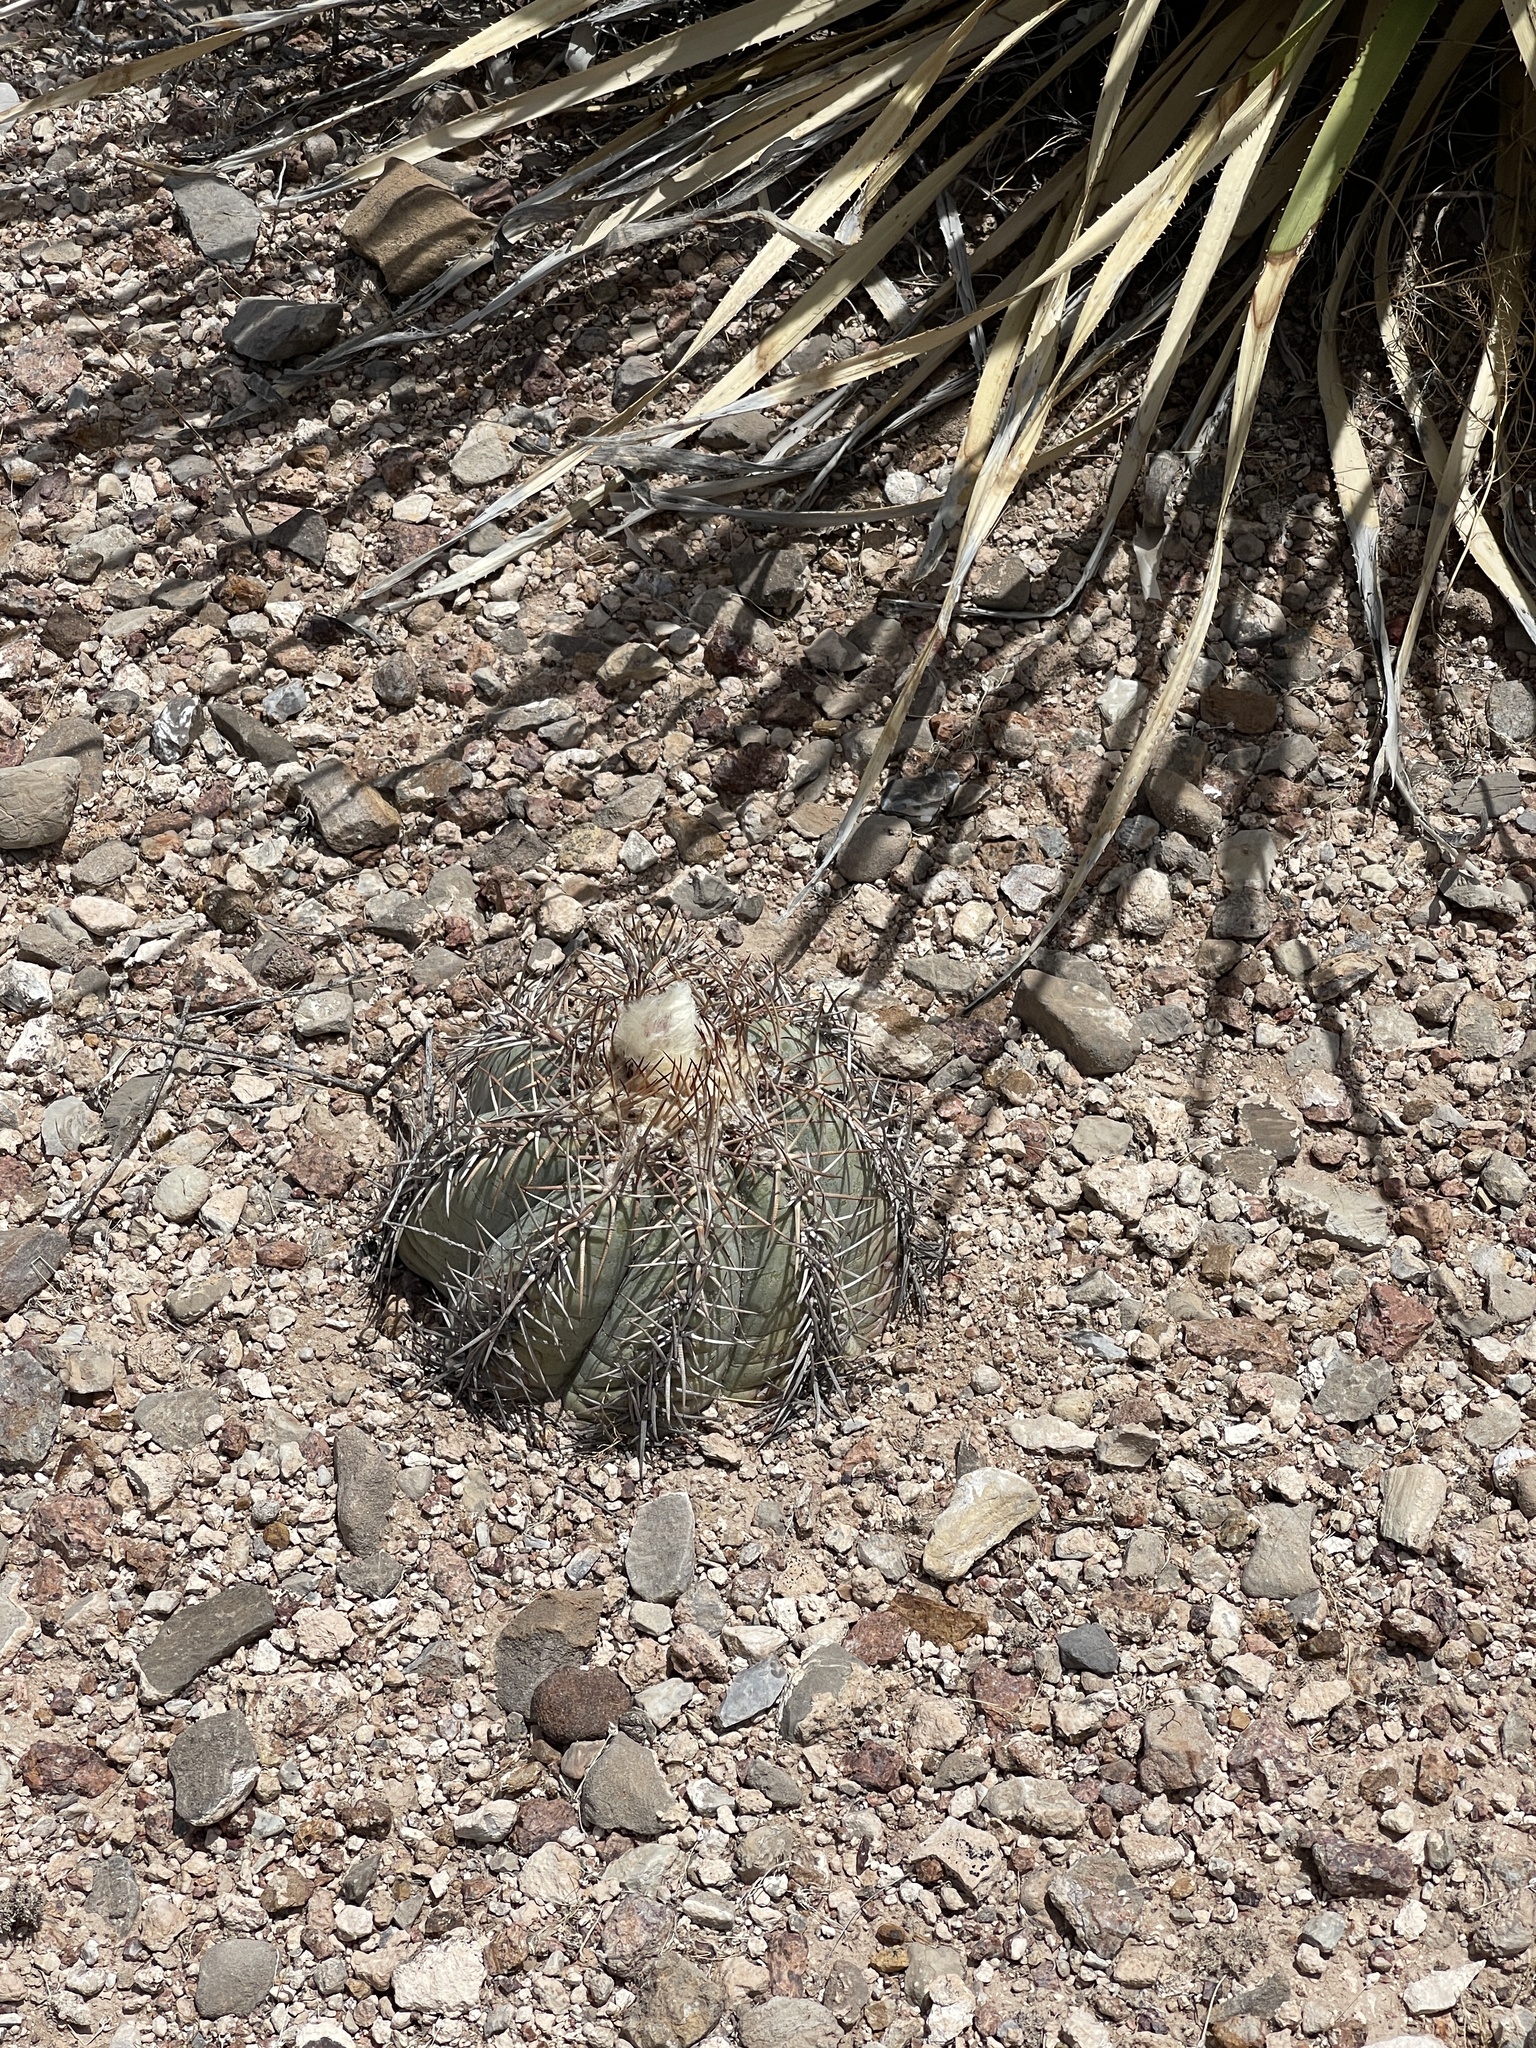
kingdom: Plantae
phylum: Tracheophyta
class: Magnoliopsida
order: Caryophyllales
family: Cactaceae
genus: Echinocactus
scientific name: Echinocactus horizonthalonius
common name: Devilshead
